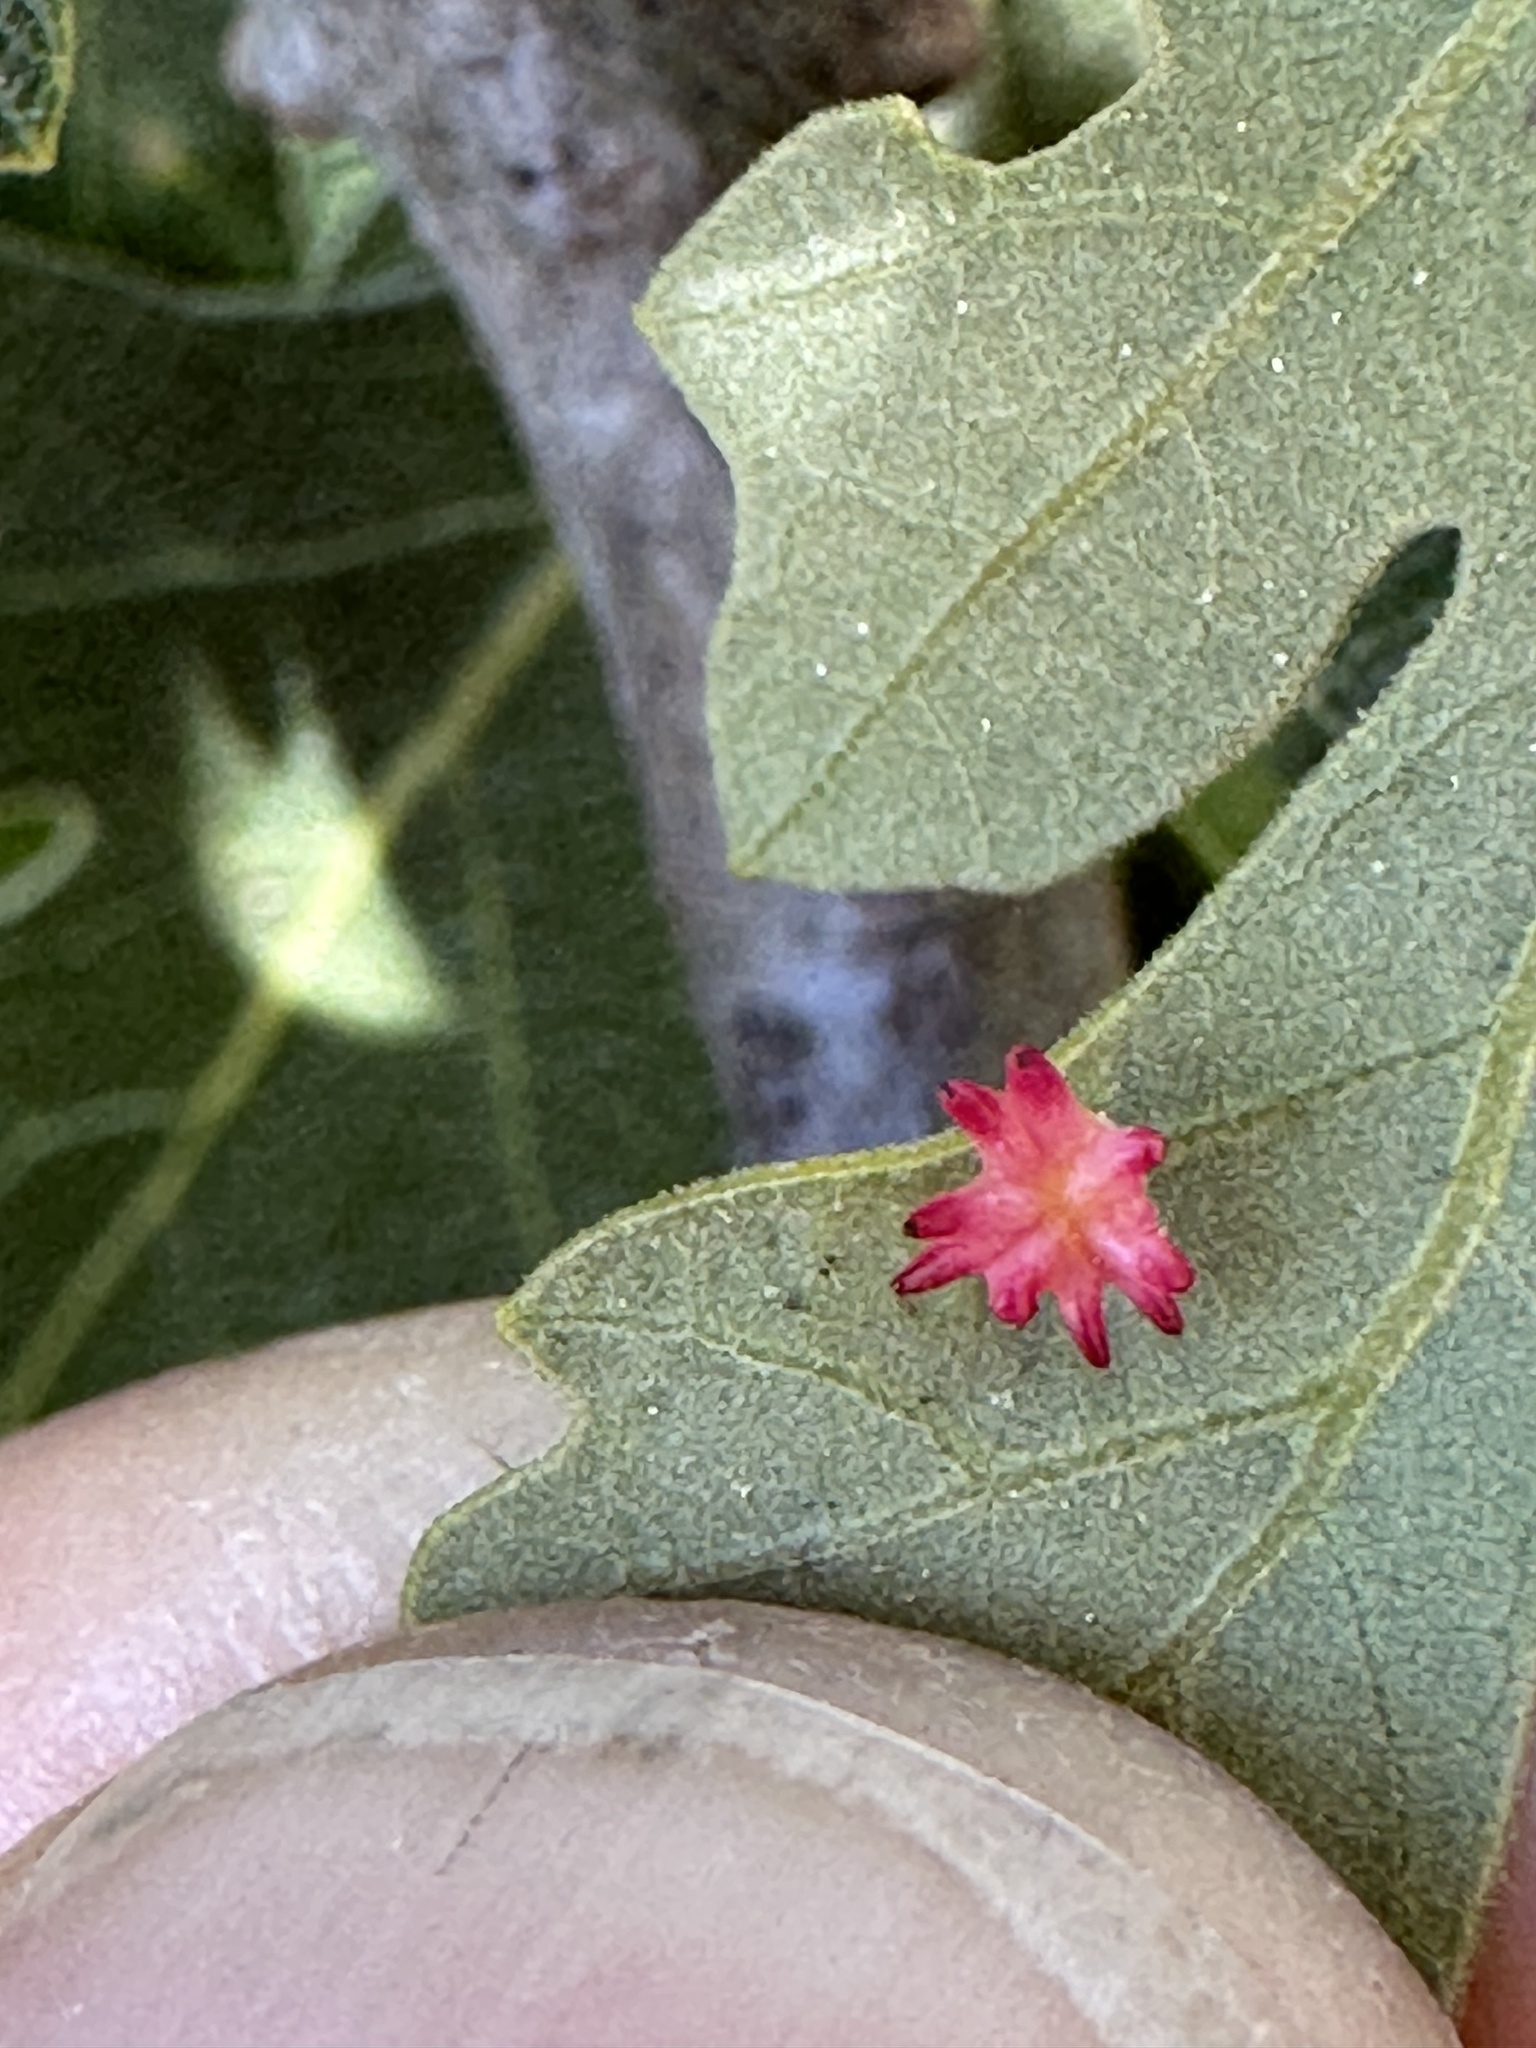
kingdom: Animalia
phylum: Arthropoda
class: Insecta
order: Hymenoptera
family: Cynipidae
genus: Cynips
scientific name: Cynips
